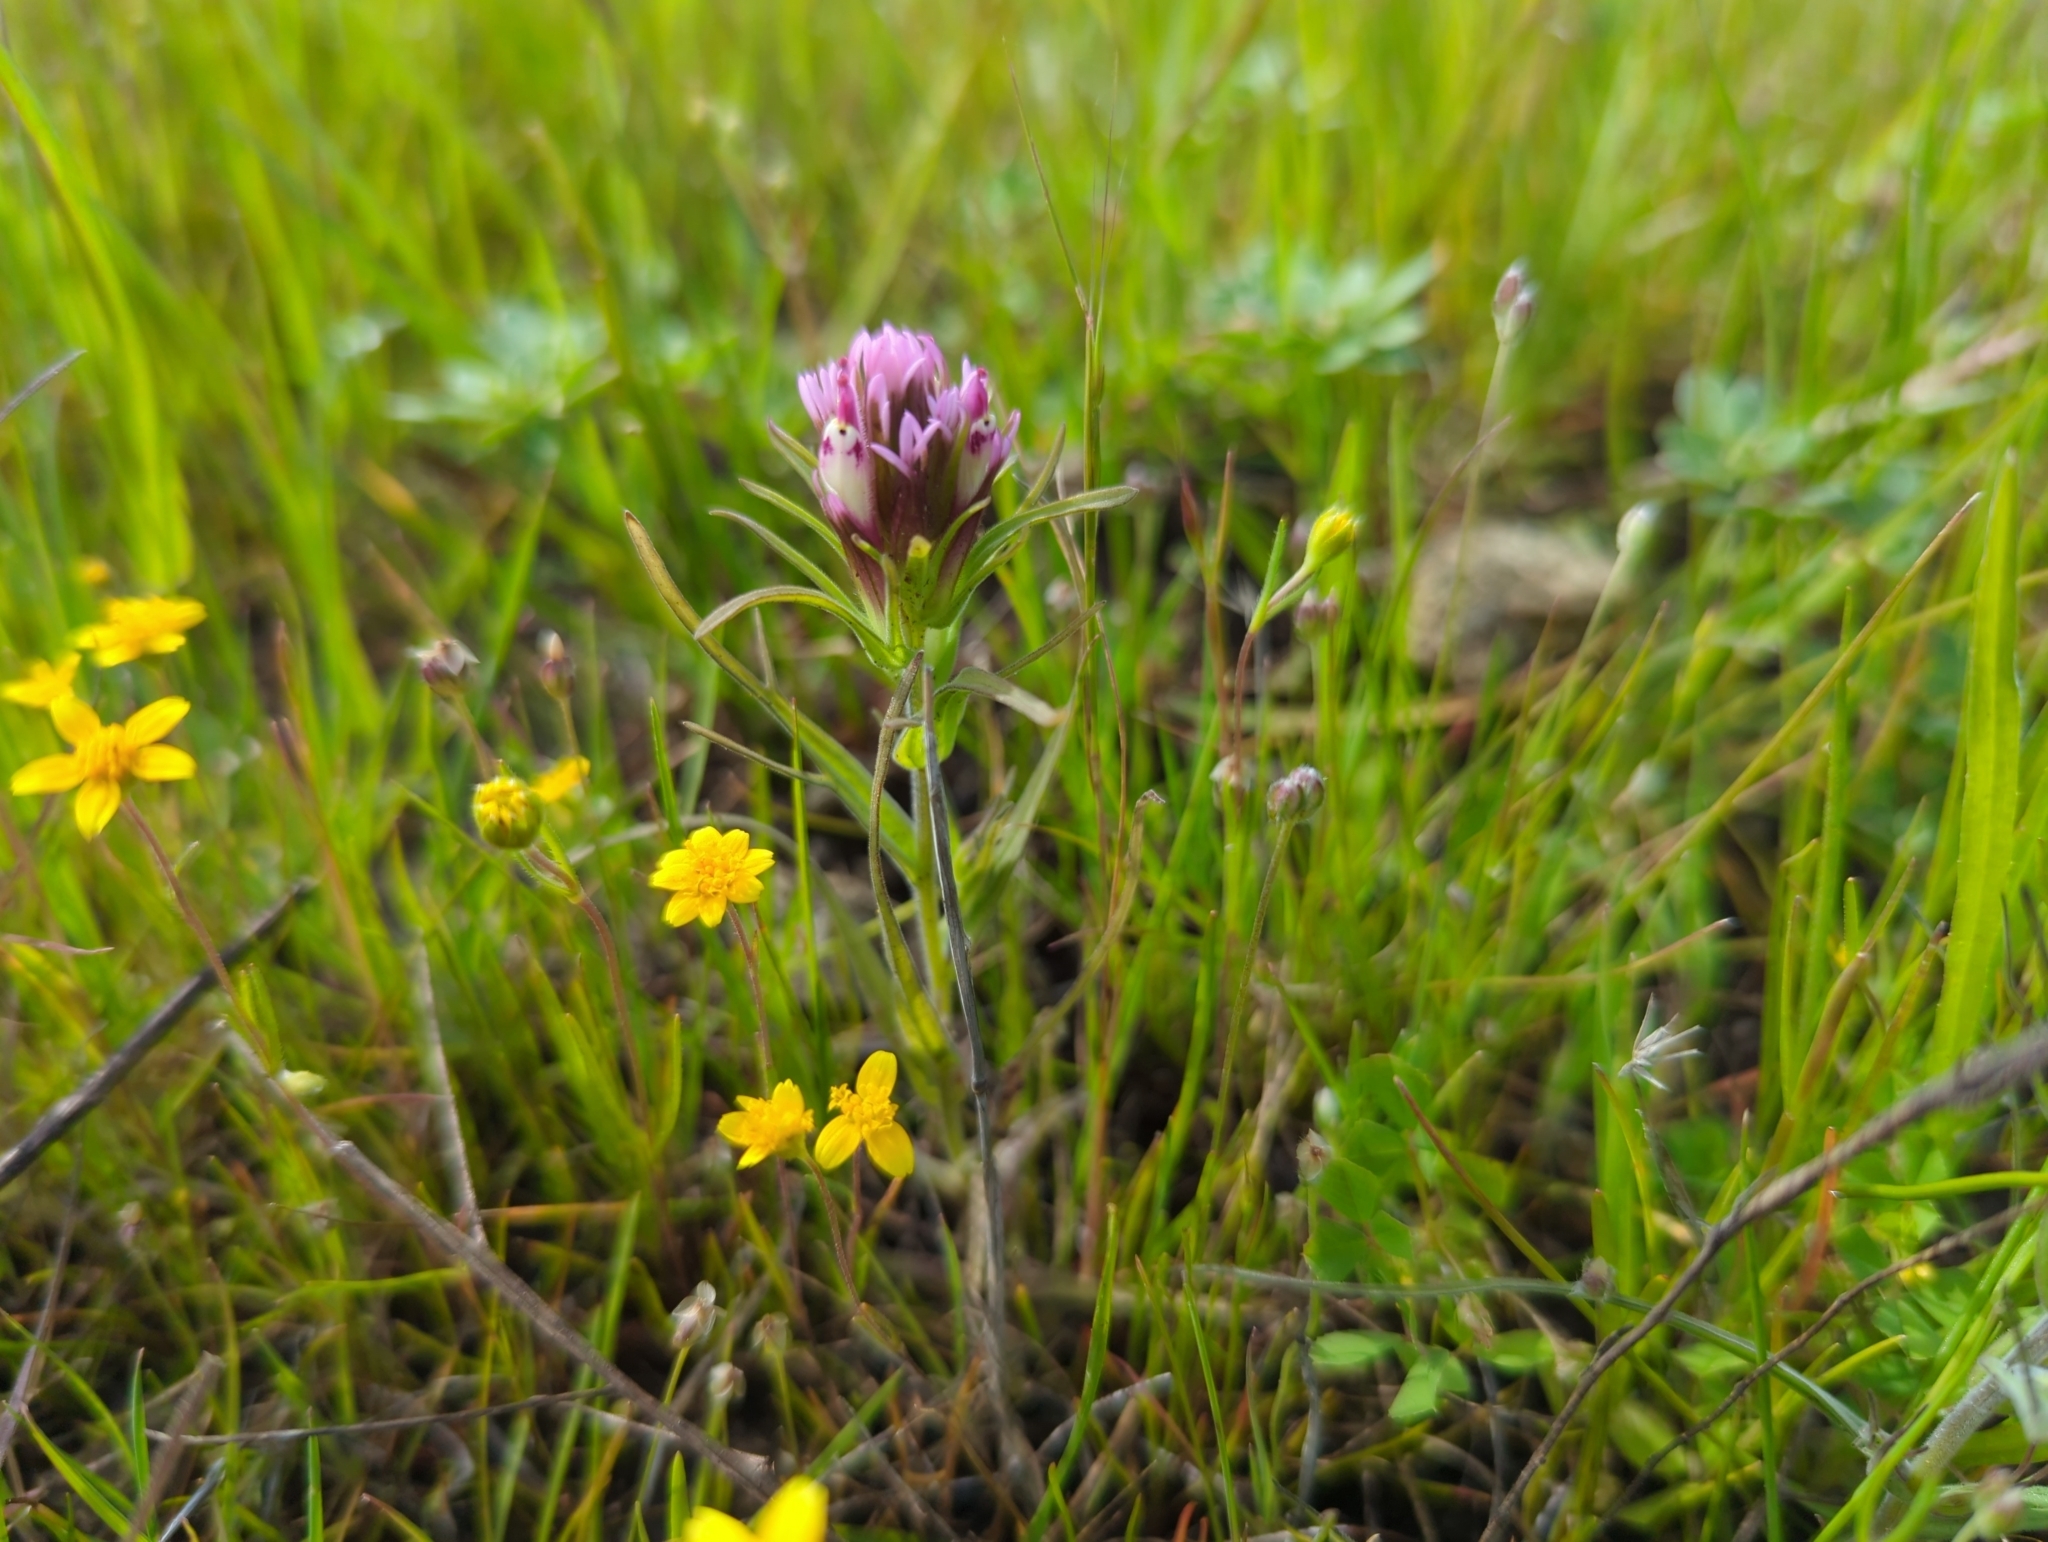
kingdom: Plantae
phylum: Tracheophyta
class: Magnoliopsida
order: Lamiales
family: Orobanchaceae
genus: Castilleja
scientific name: Castilleja densiflora
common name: Dense-flower indian paintbrush
